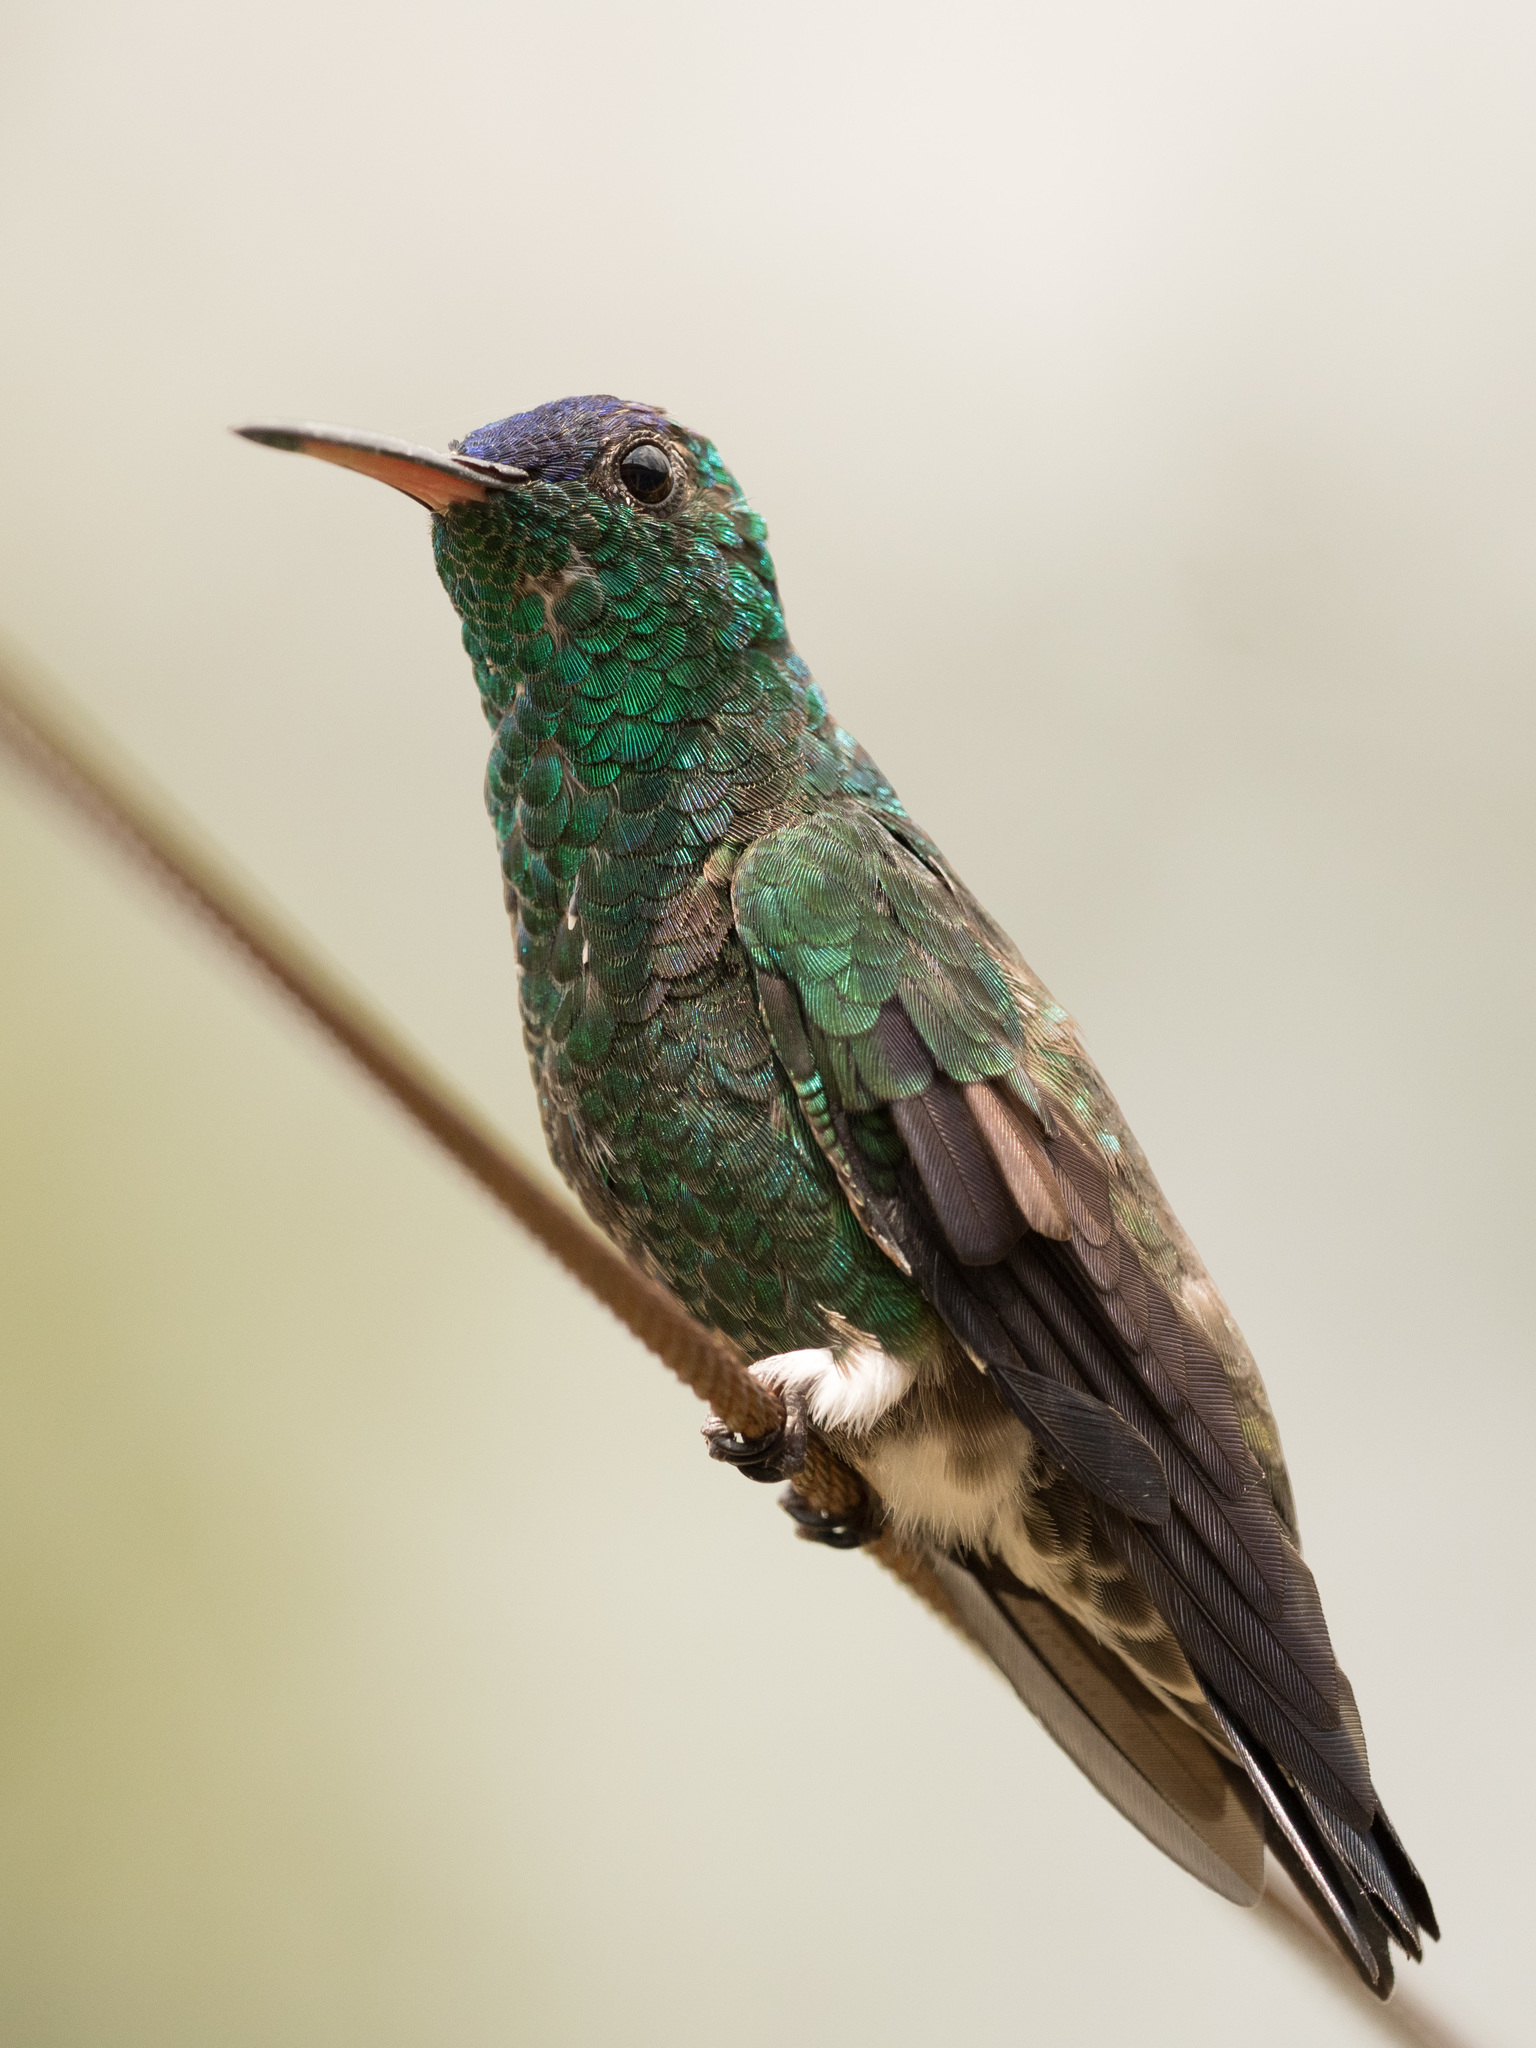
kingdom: Animalia
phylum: Chordata
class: Aves
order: Apodiformes
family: Trochilidae
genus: Saucerottia
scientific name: Saucerottia cyanifrons
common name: Indigo-capped hummingbird
